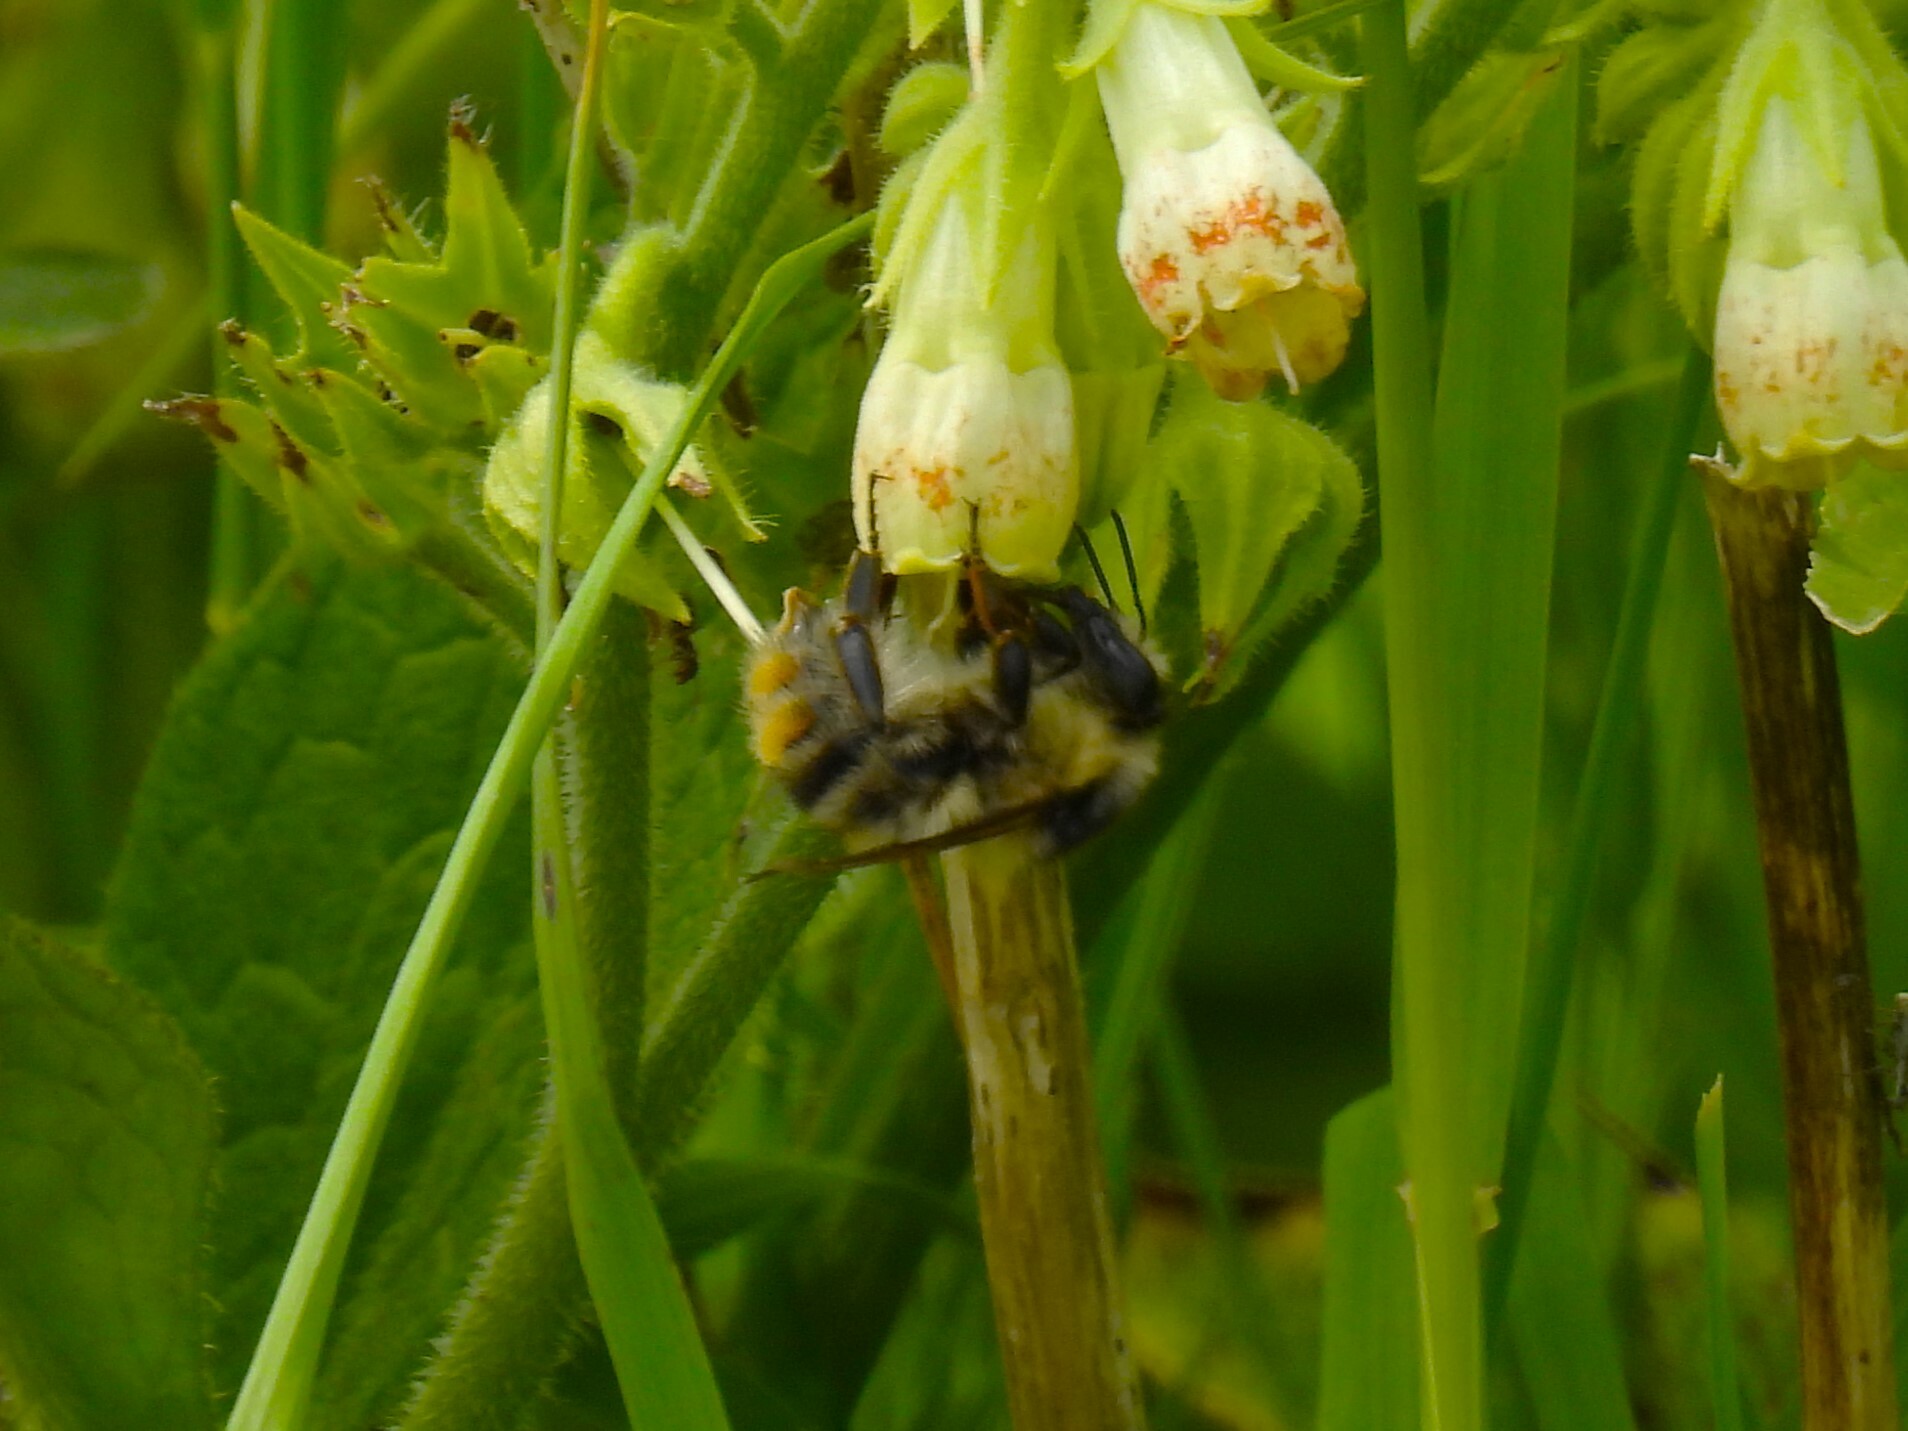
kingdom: Animalia
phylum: Arthropoda
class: Insecta
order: Hymenoptera
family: Apidae
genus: Bombus
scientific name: Bombus sylvarum
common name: Shrill carder bee
